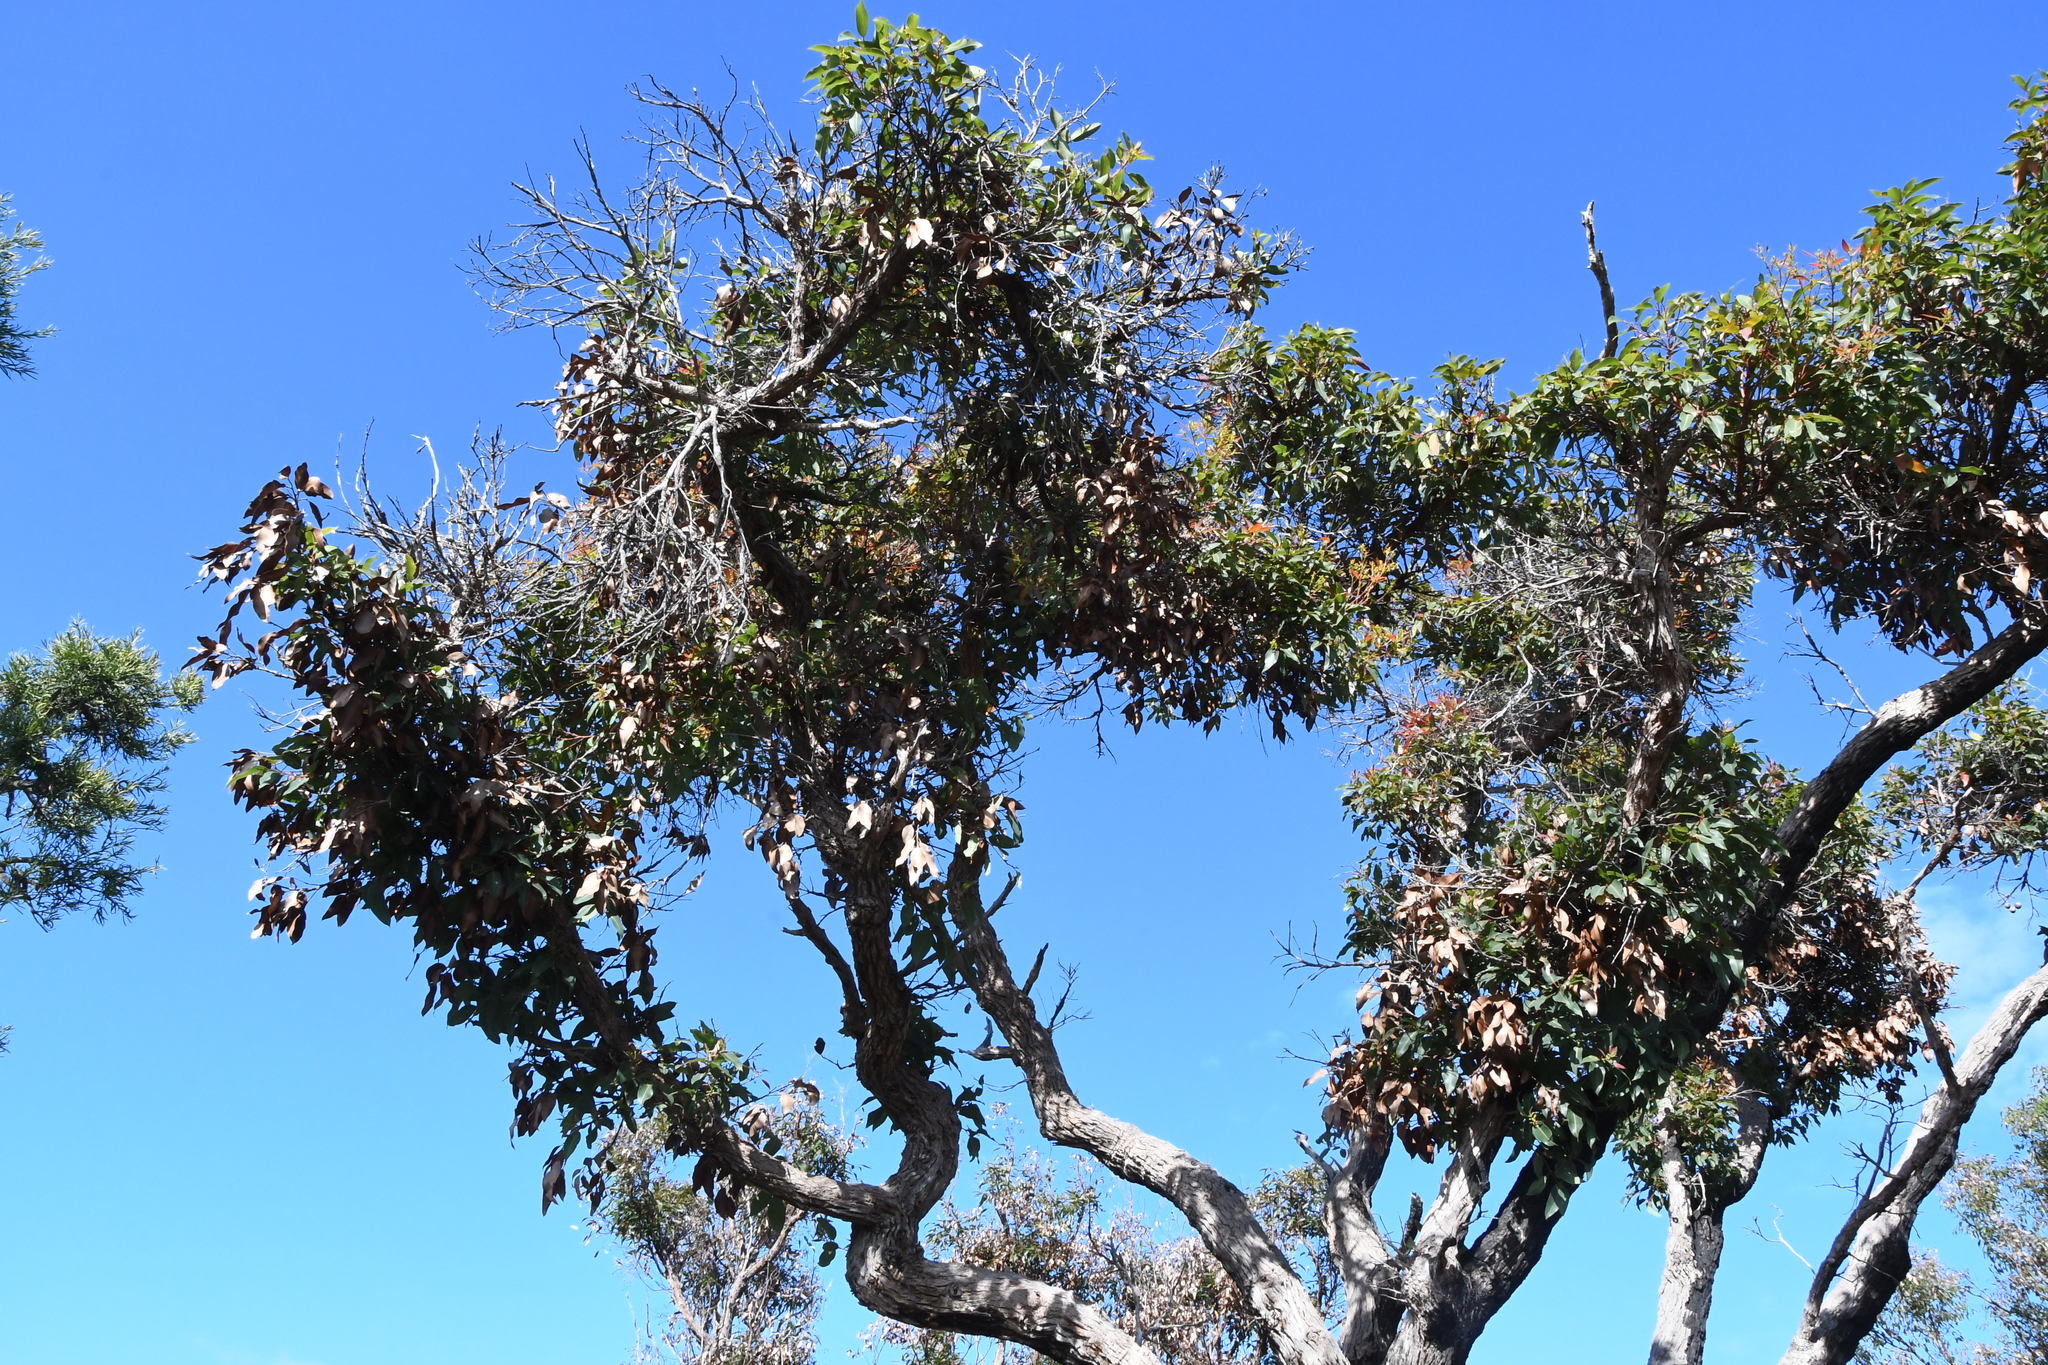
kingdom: Plantae
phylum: Tracheophyta
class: Magnoliopsida
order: Myrtales
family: Myrtaceae
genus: Corymbia
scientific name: Corymbia ficifolia
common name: Redflower gum
